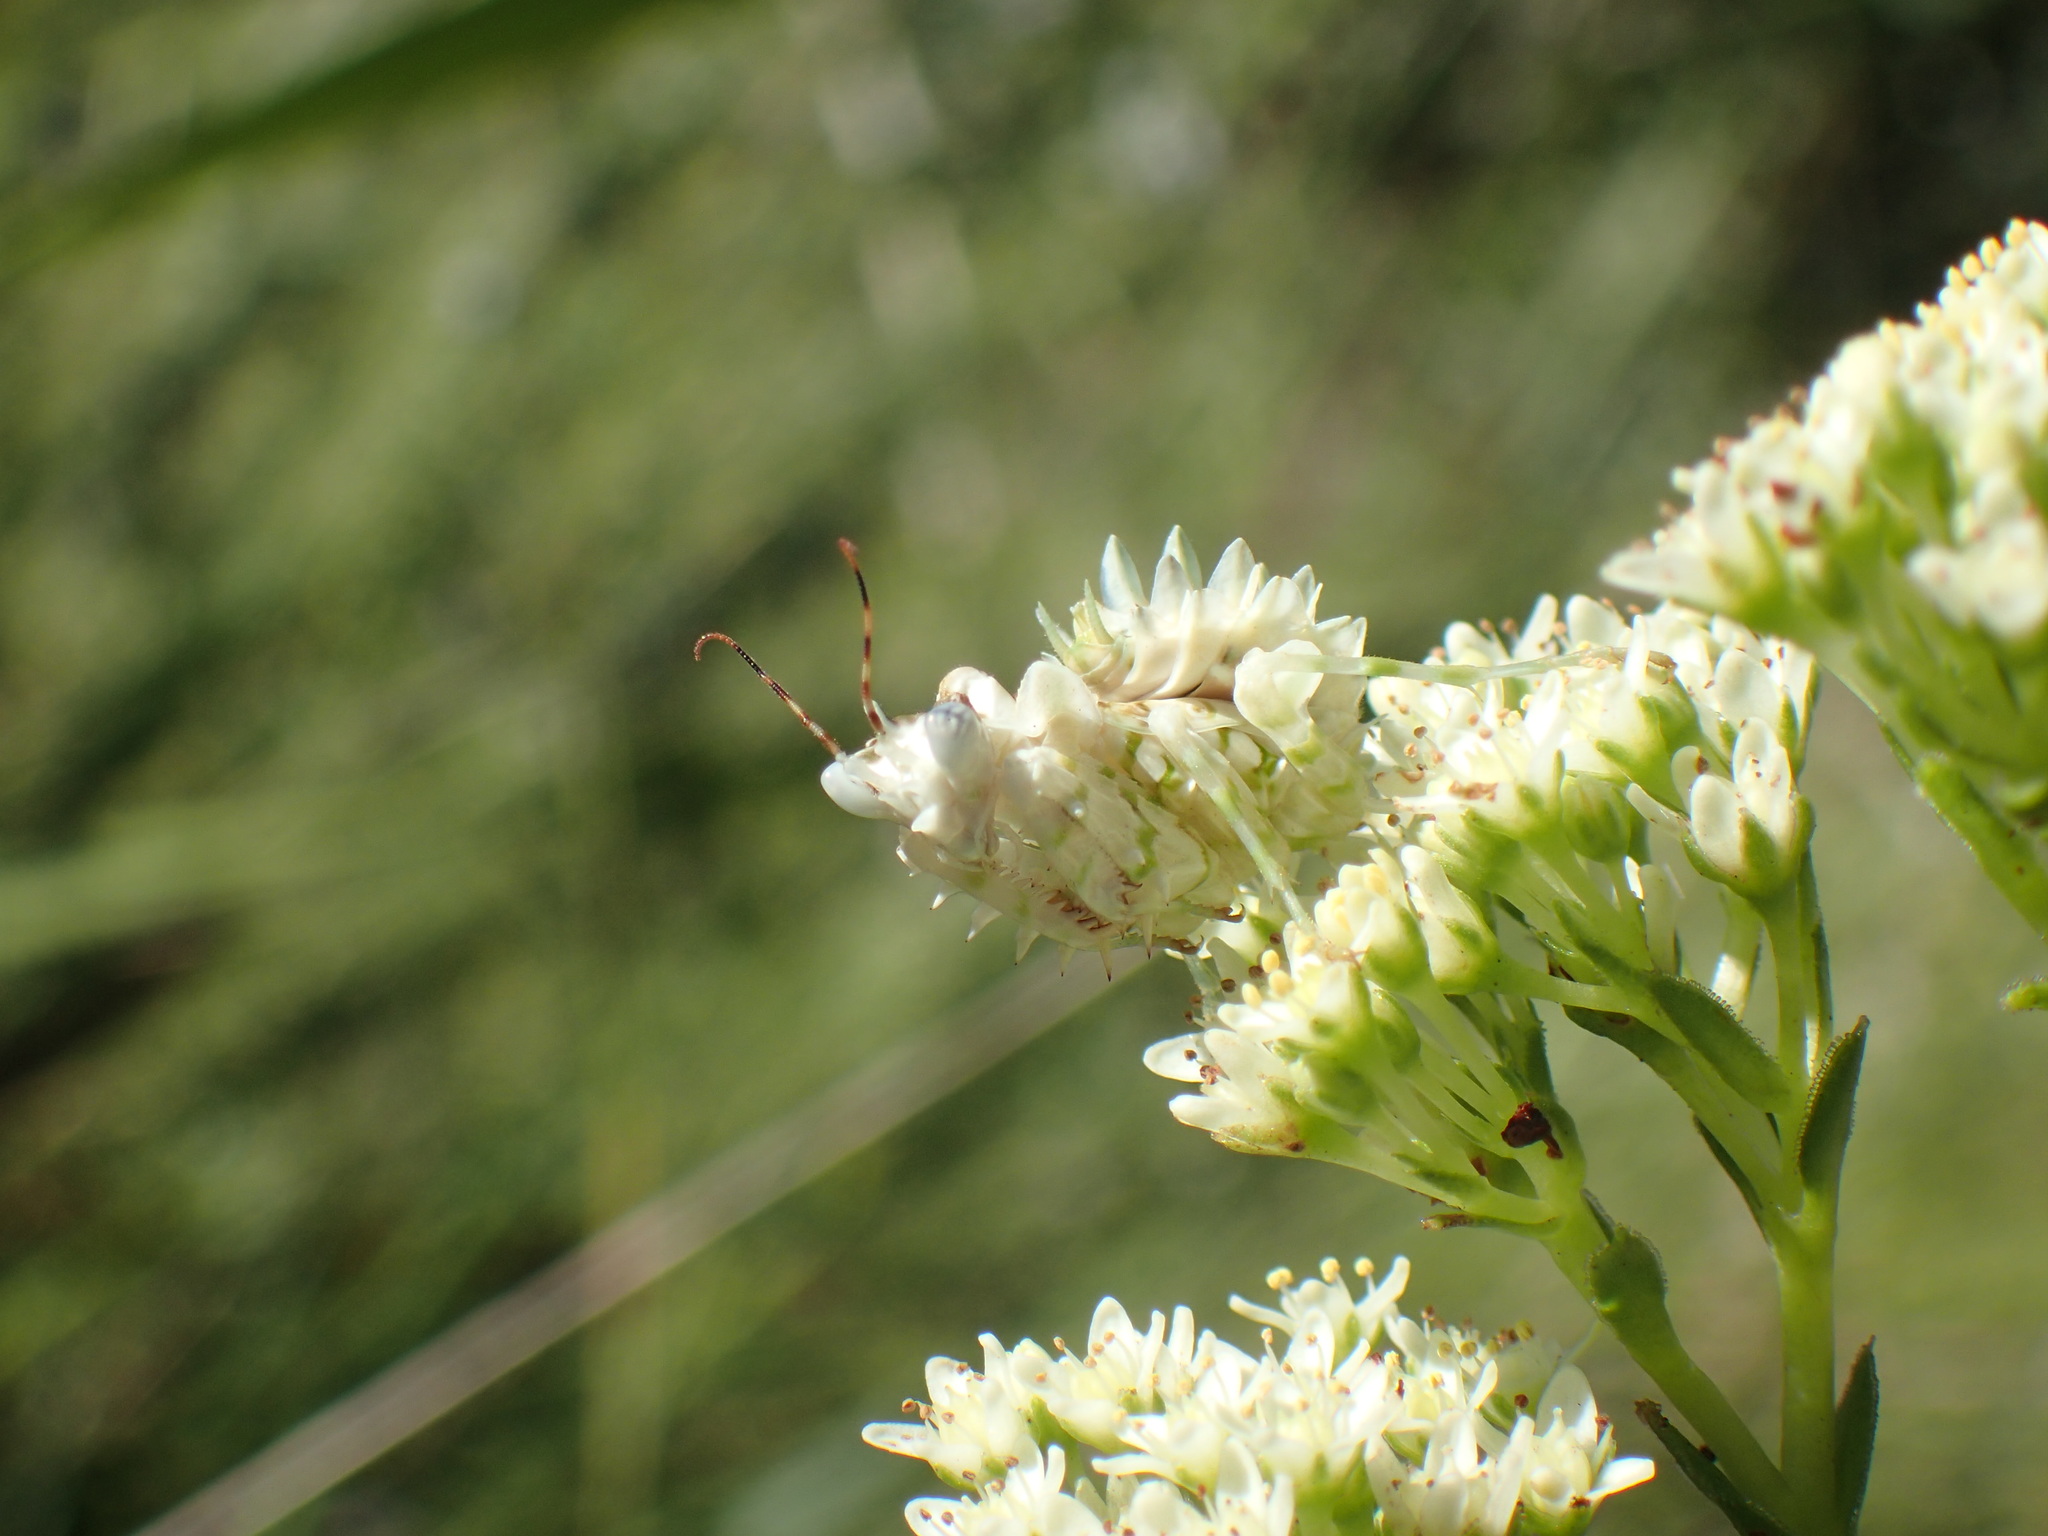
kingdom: Animalia
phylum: Arthropoda
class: Insecta
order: Mantodea
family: Hymenopodidae
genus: Pseudocreobotra
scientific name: Pseudocreobotra wahlbergi
